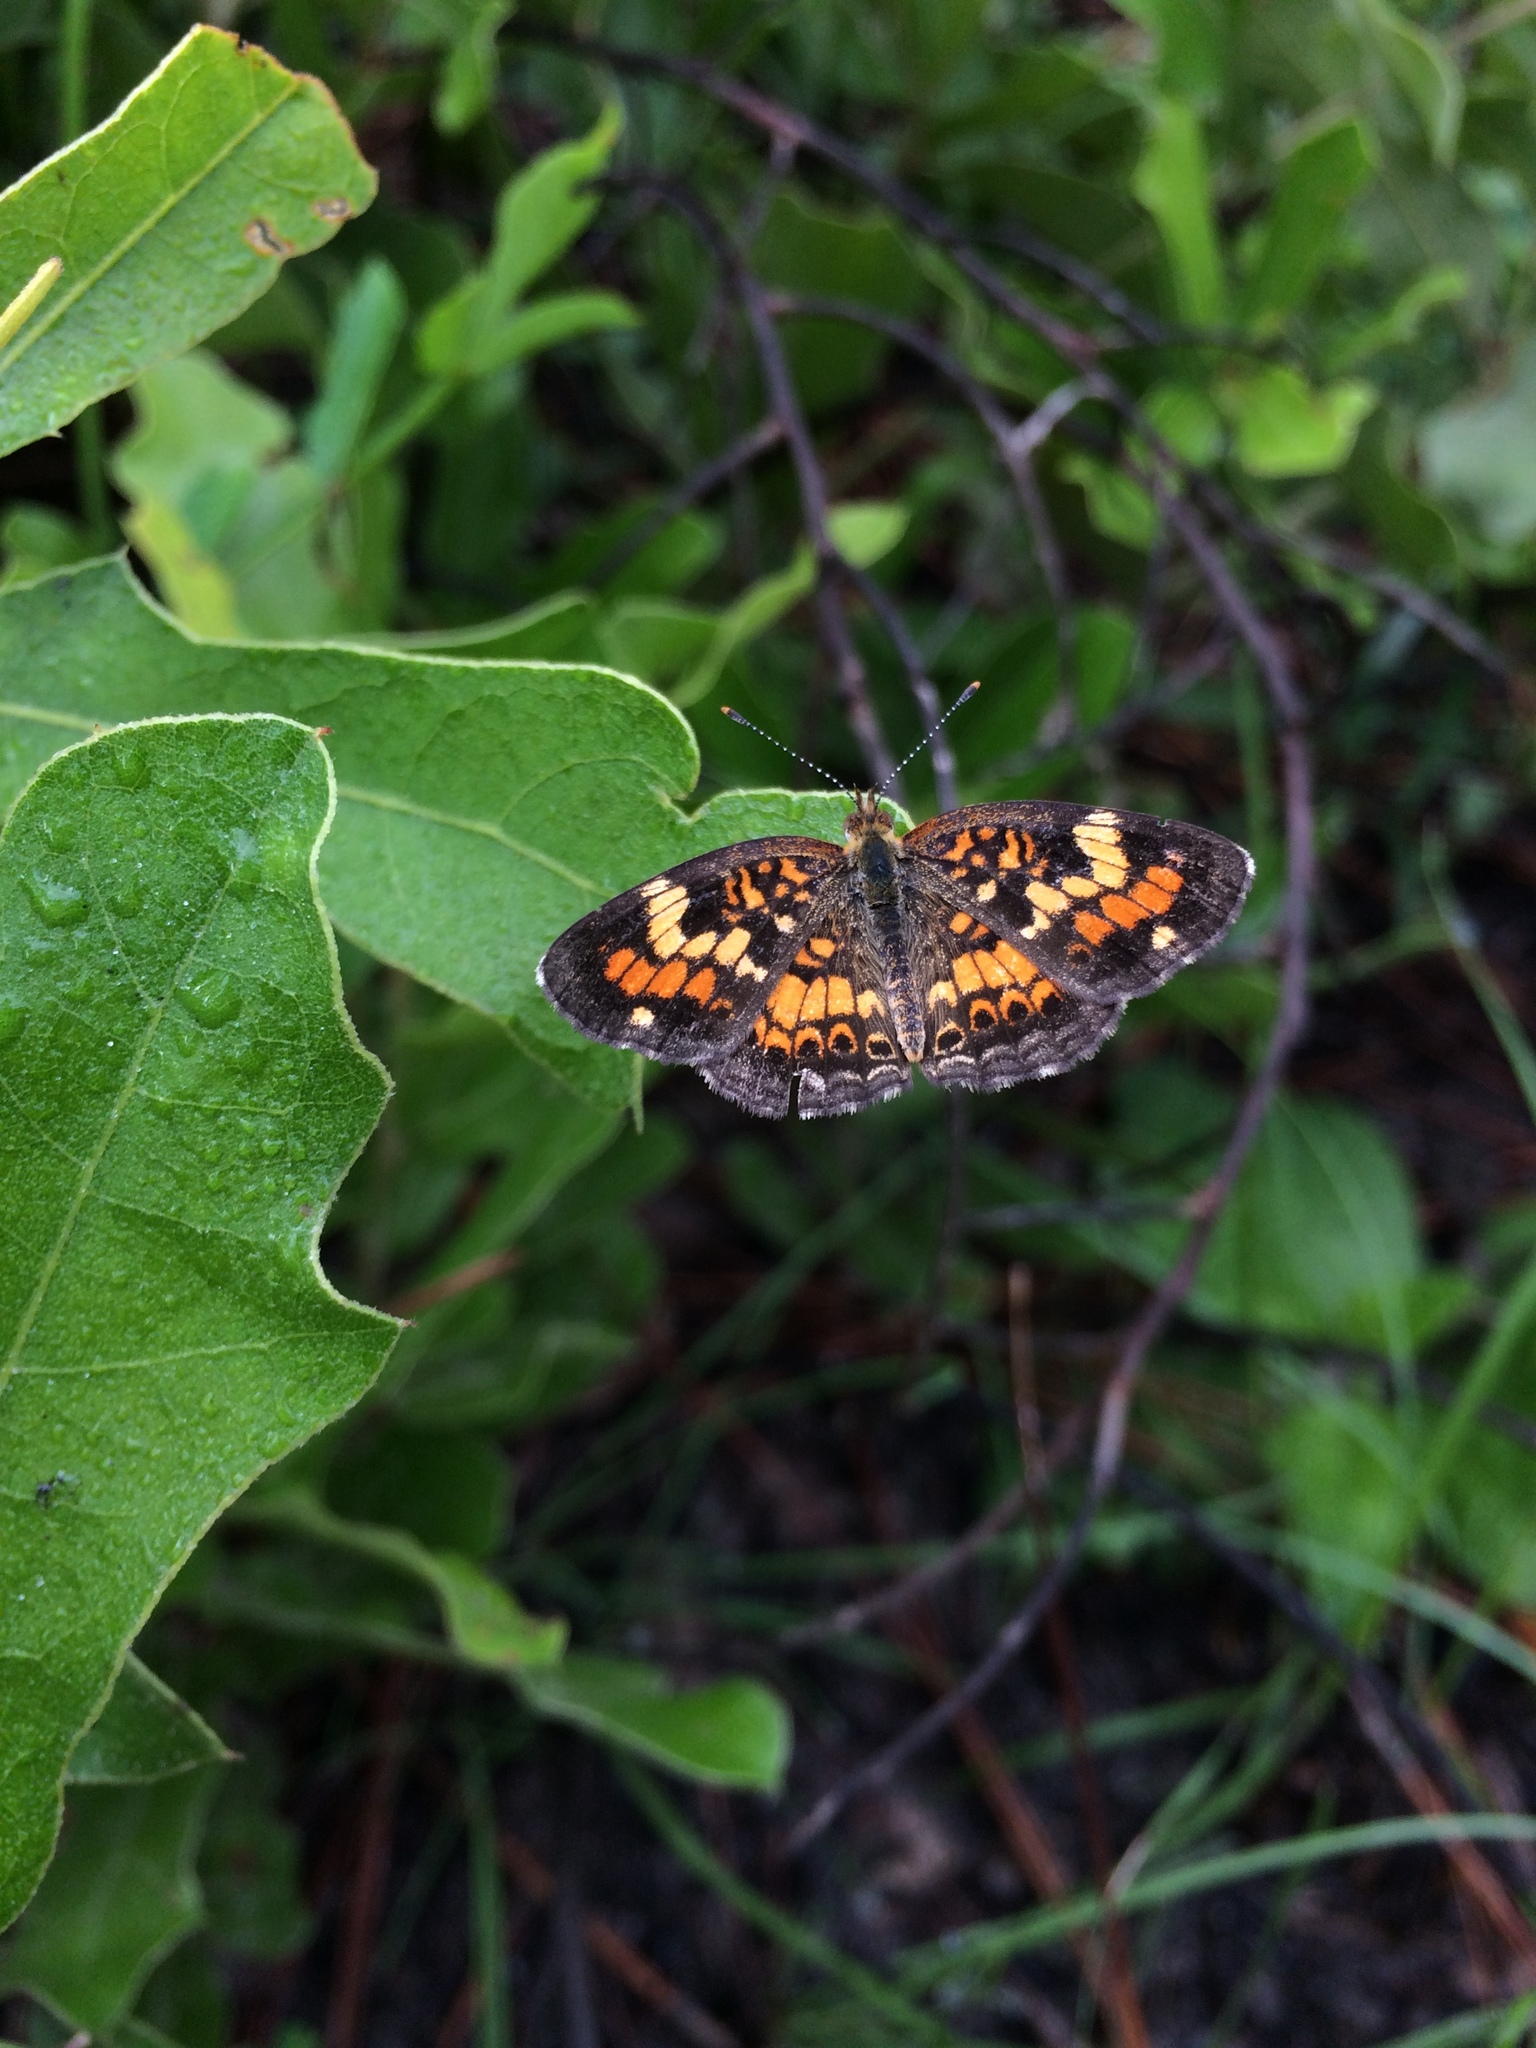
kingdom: Animalia
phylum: Arthropoda
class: Insecta
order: Lepidoptera
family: Nymphalidae
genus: Phyciodes
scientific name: Phyciodes phaon
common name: Phaon crescent
